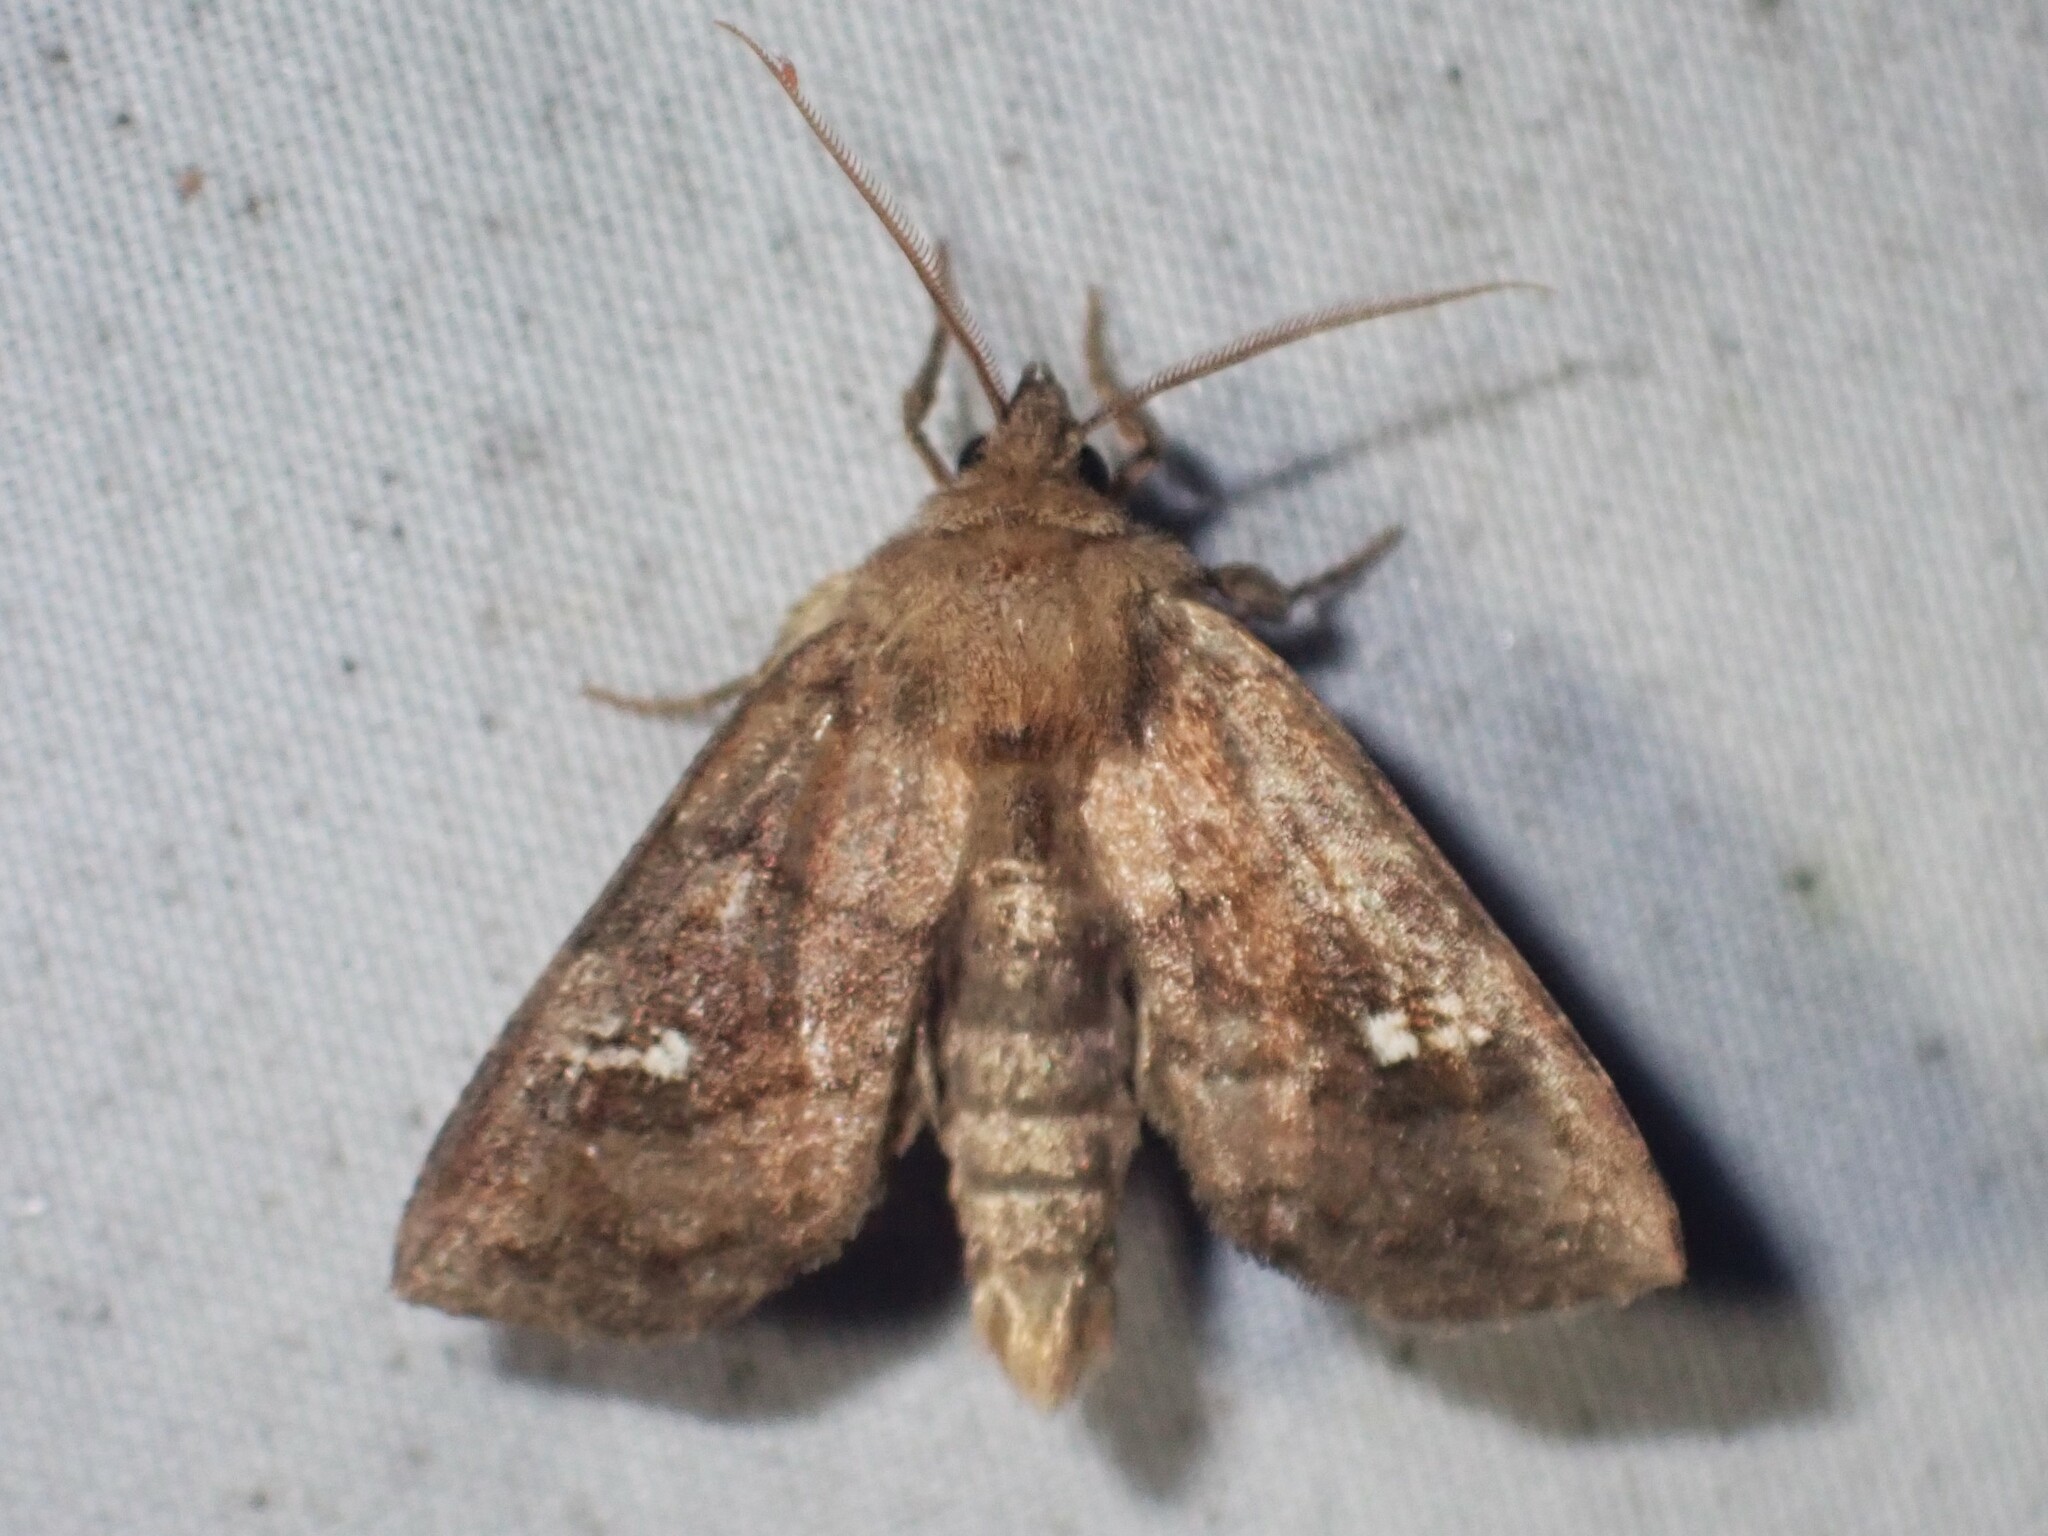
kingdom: Animalia
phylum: Arthropoda
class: Insecta
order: Lepidoptera
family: Noctuidae
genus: Tricholita
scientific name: Tricholita signata
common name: Signate quaker
